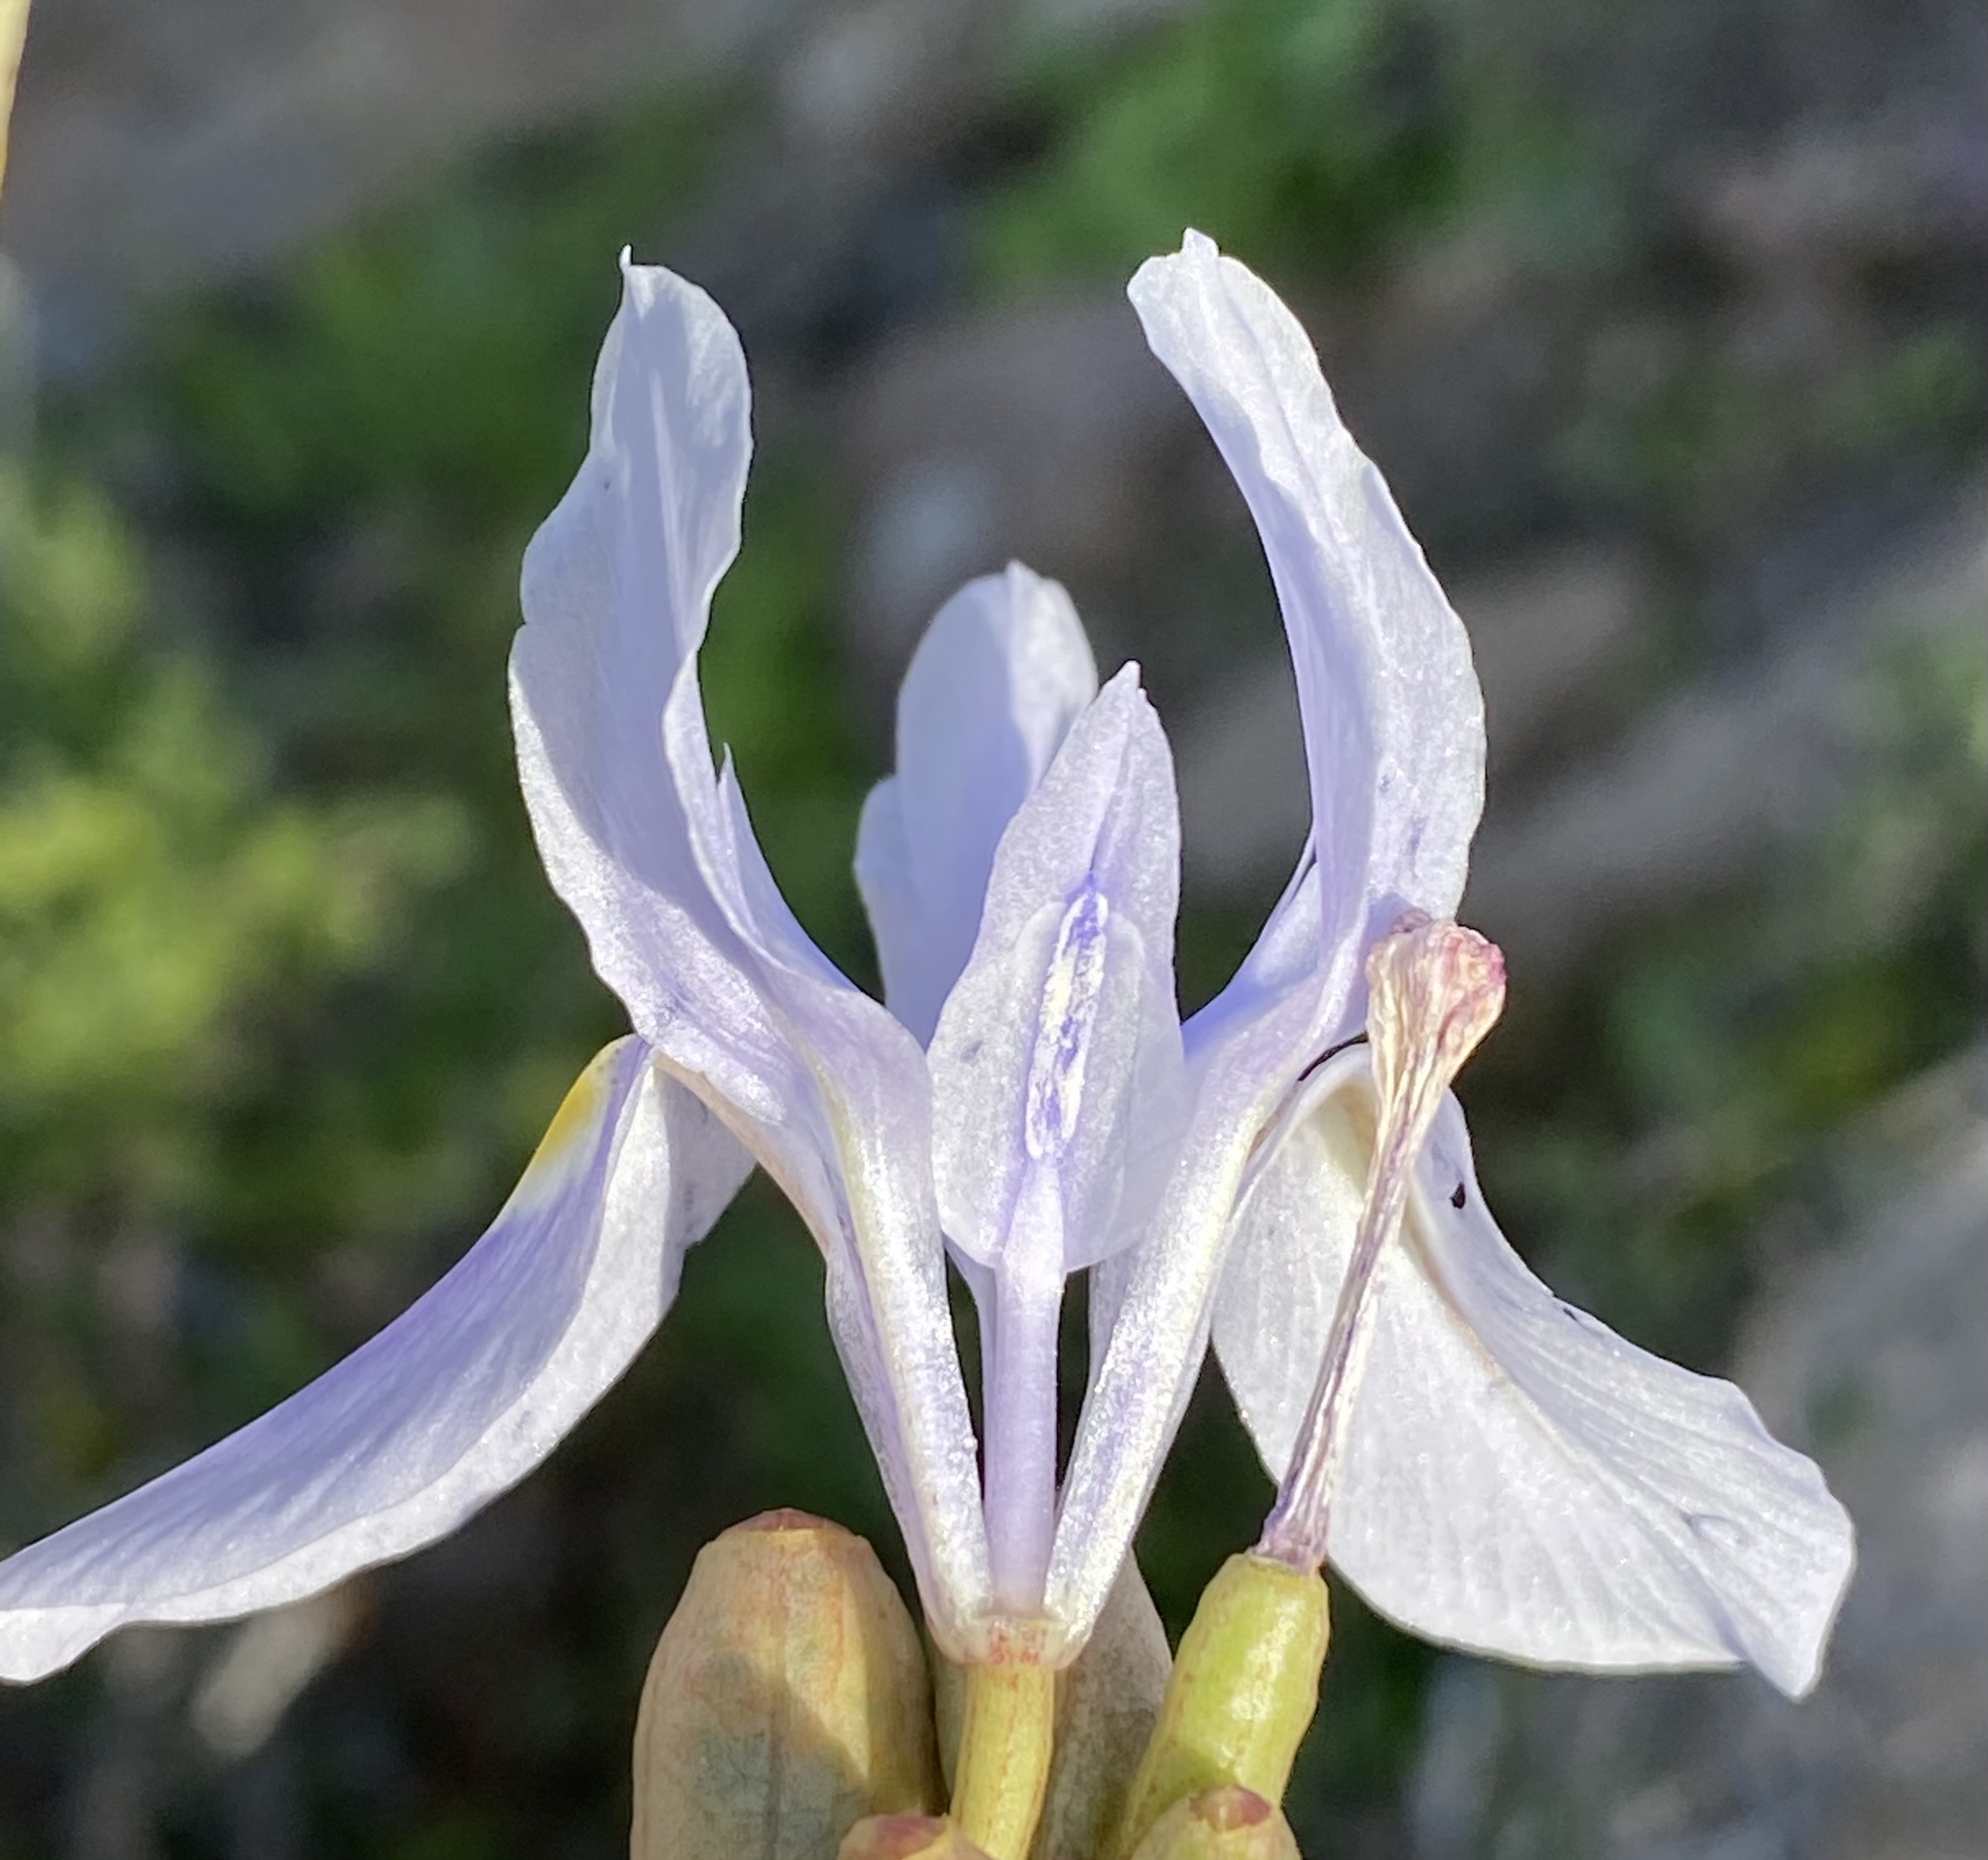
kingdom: Plantae
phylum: Tracheophyta
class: Liliopsida
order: Asparagales
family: Iridaceae
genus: Moraea
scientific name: Moraea polystachya
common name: Blue-tulip
